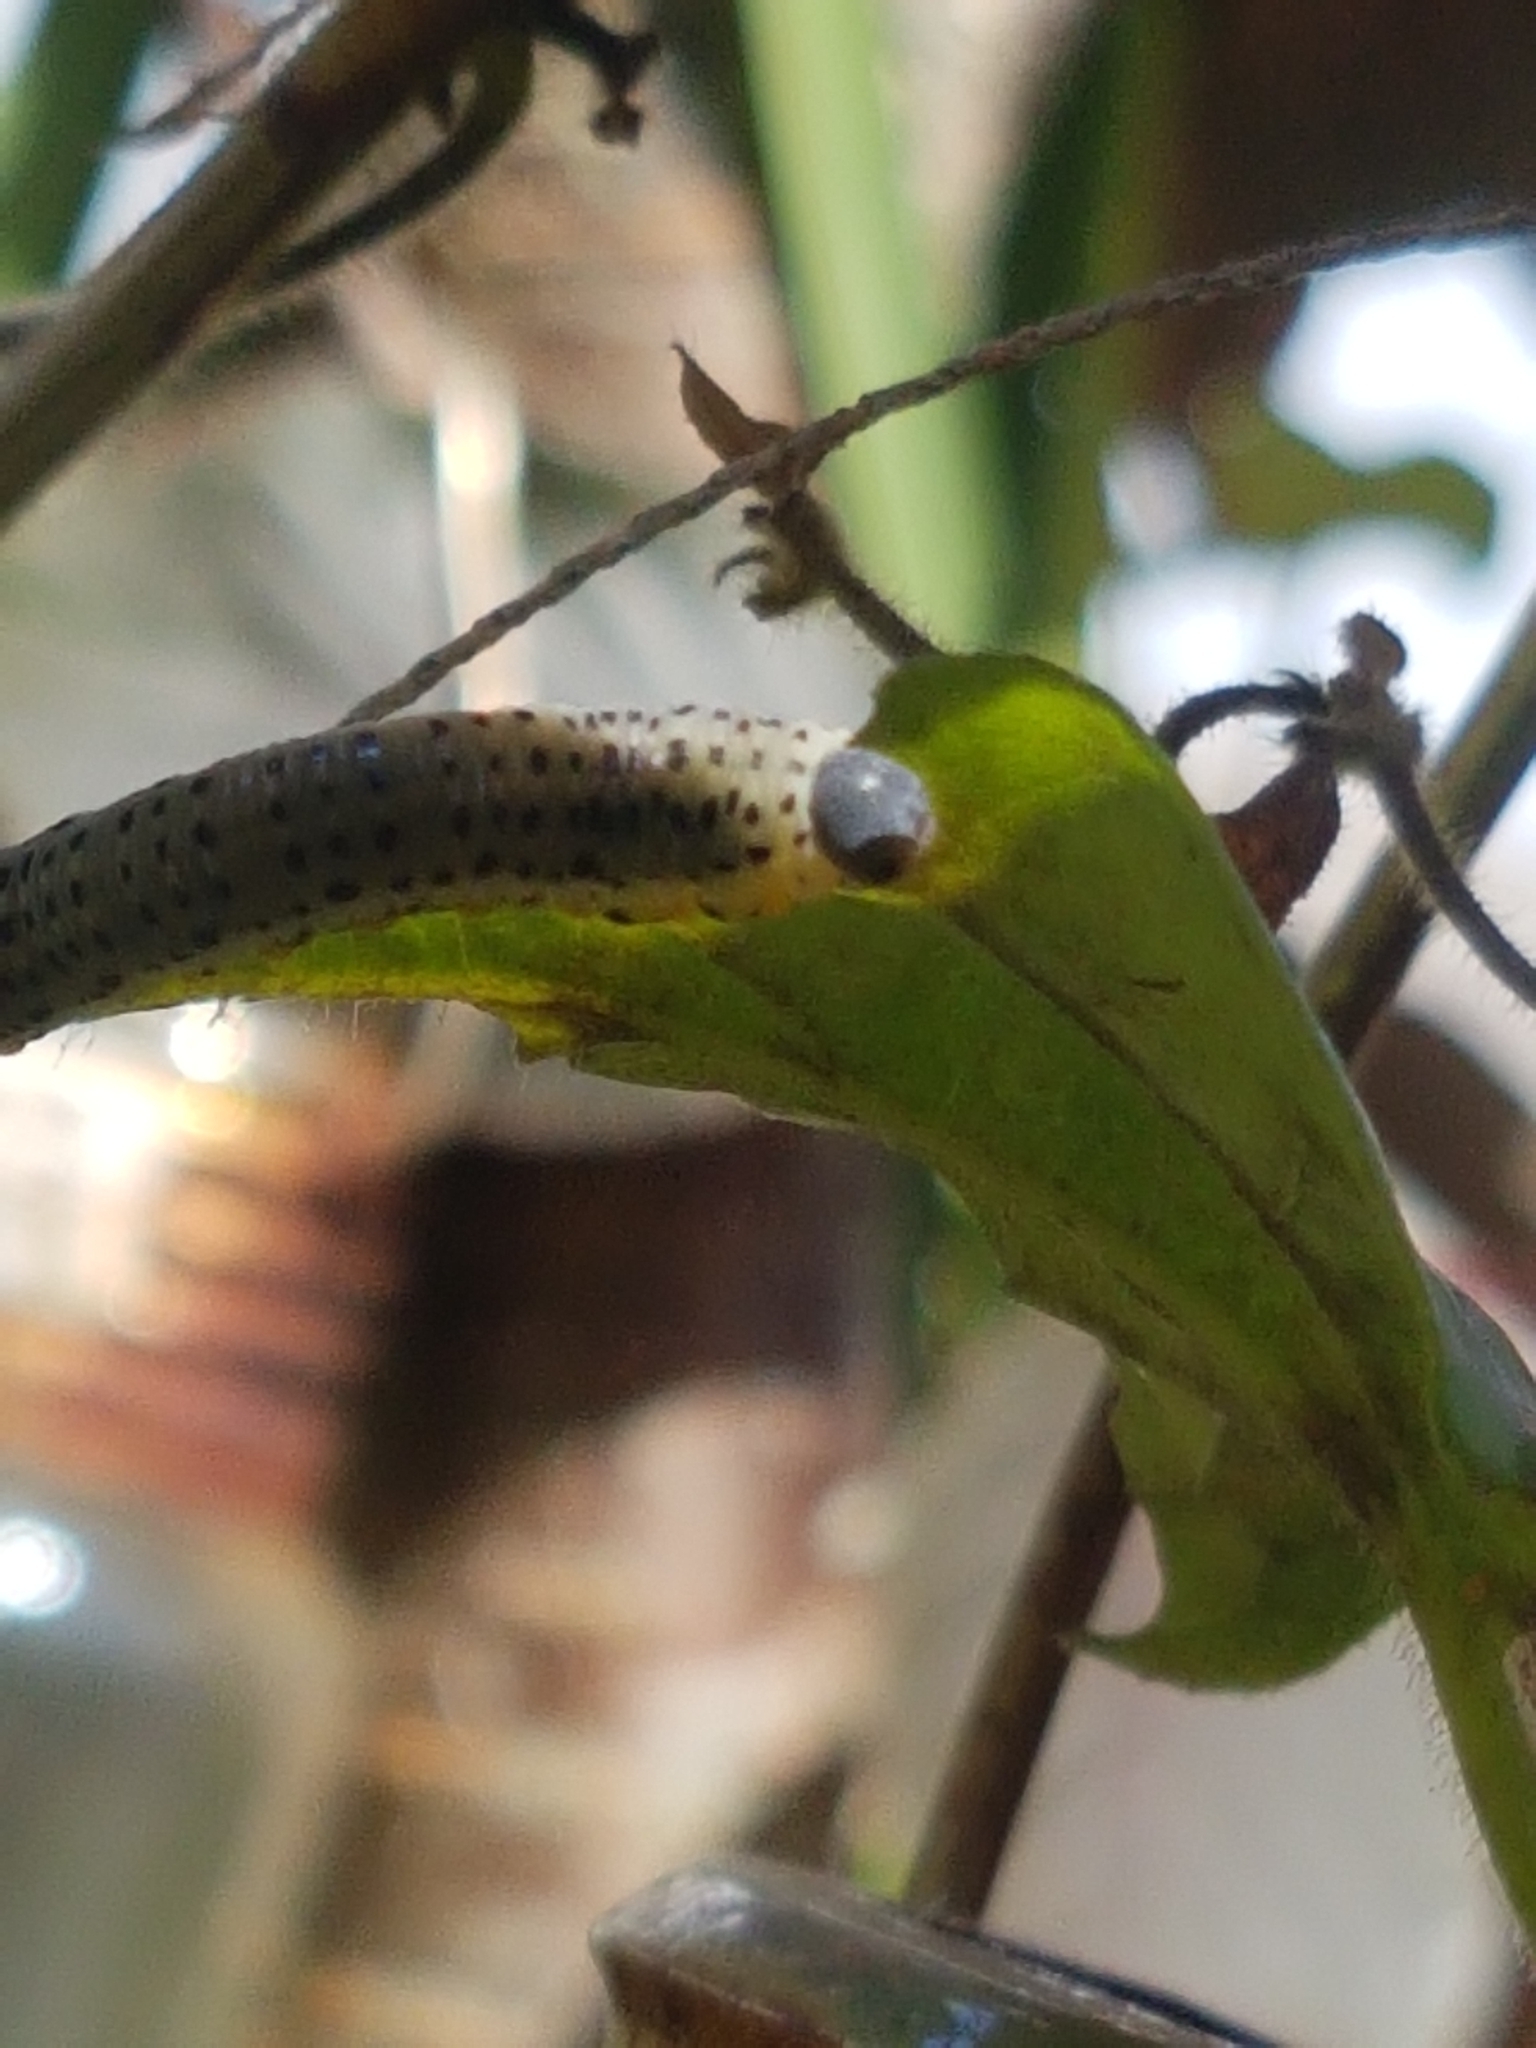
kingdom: Animalia
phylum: Arthropoda
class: Insecta
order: Hymenoptera
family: Cimbicidae
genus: Abia
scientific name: Abia fasciata
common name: Banded honeysuckle sawfly
